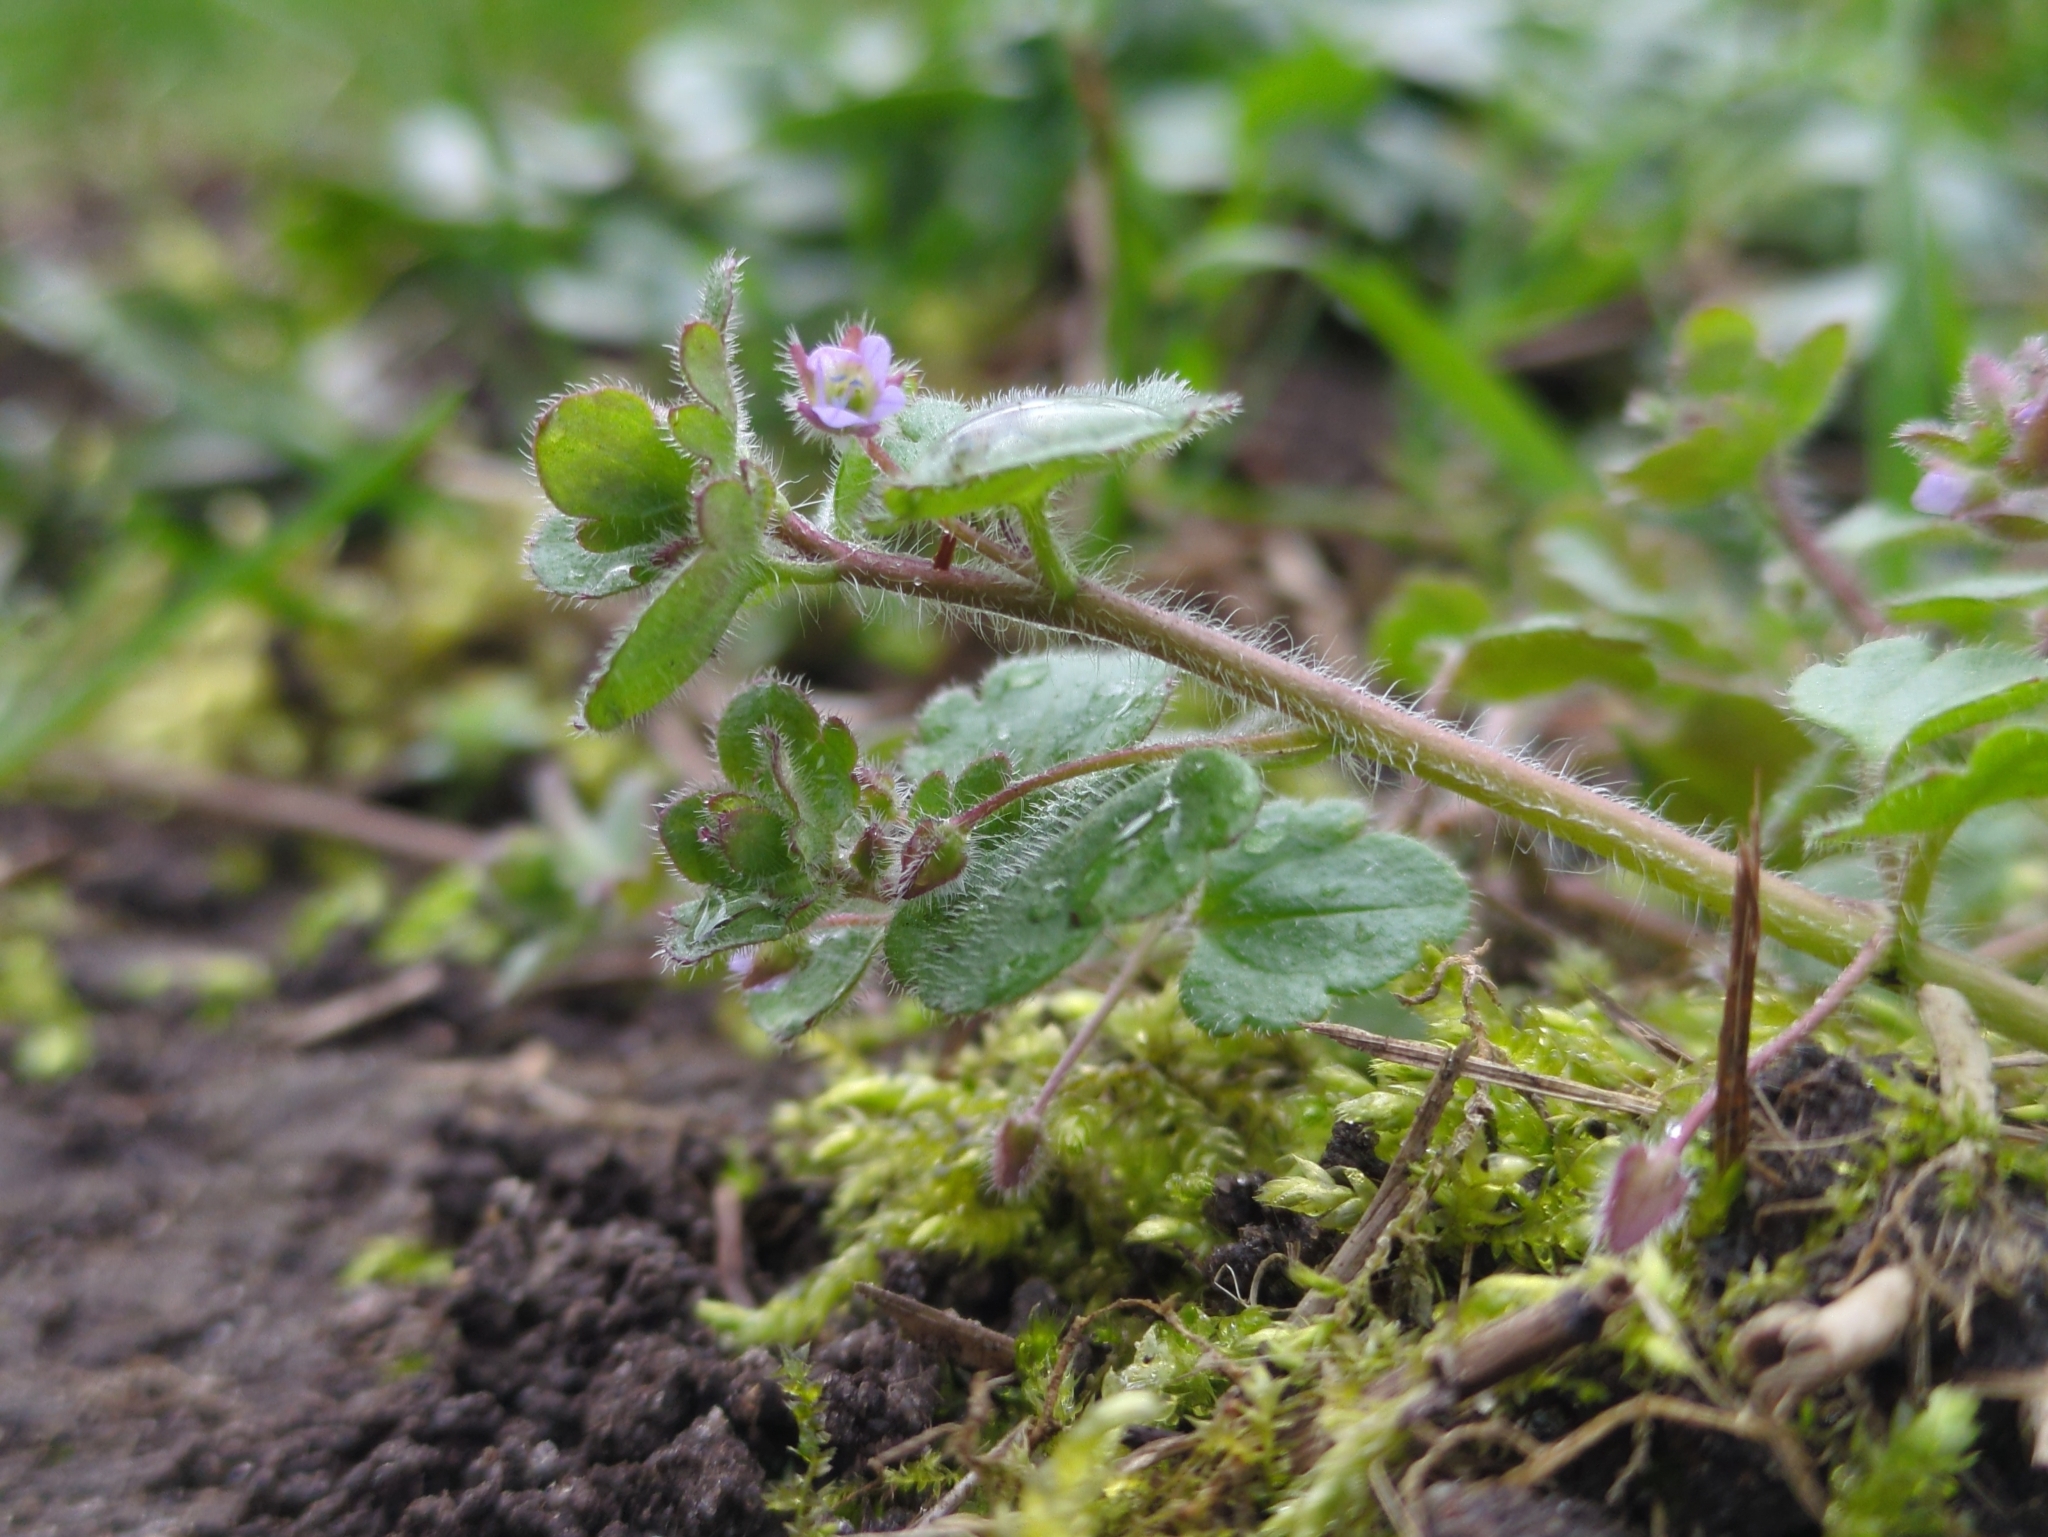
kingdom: Plantae
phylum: Tracheophyta
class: Magnoliopsida
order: Lamiales
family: Plantaginaceae
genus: Veronica
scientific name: Veronica sublobata
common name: False ivy-leaved speedwell
